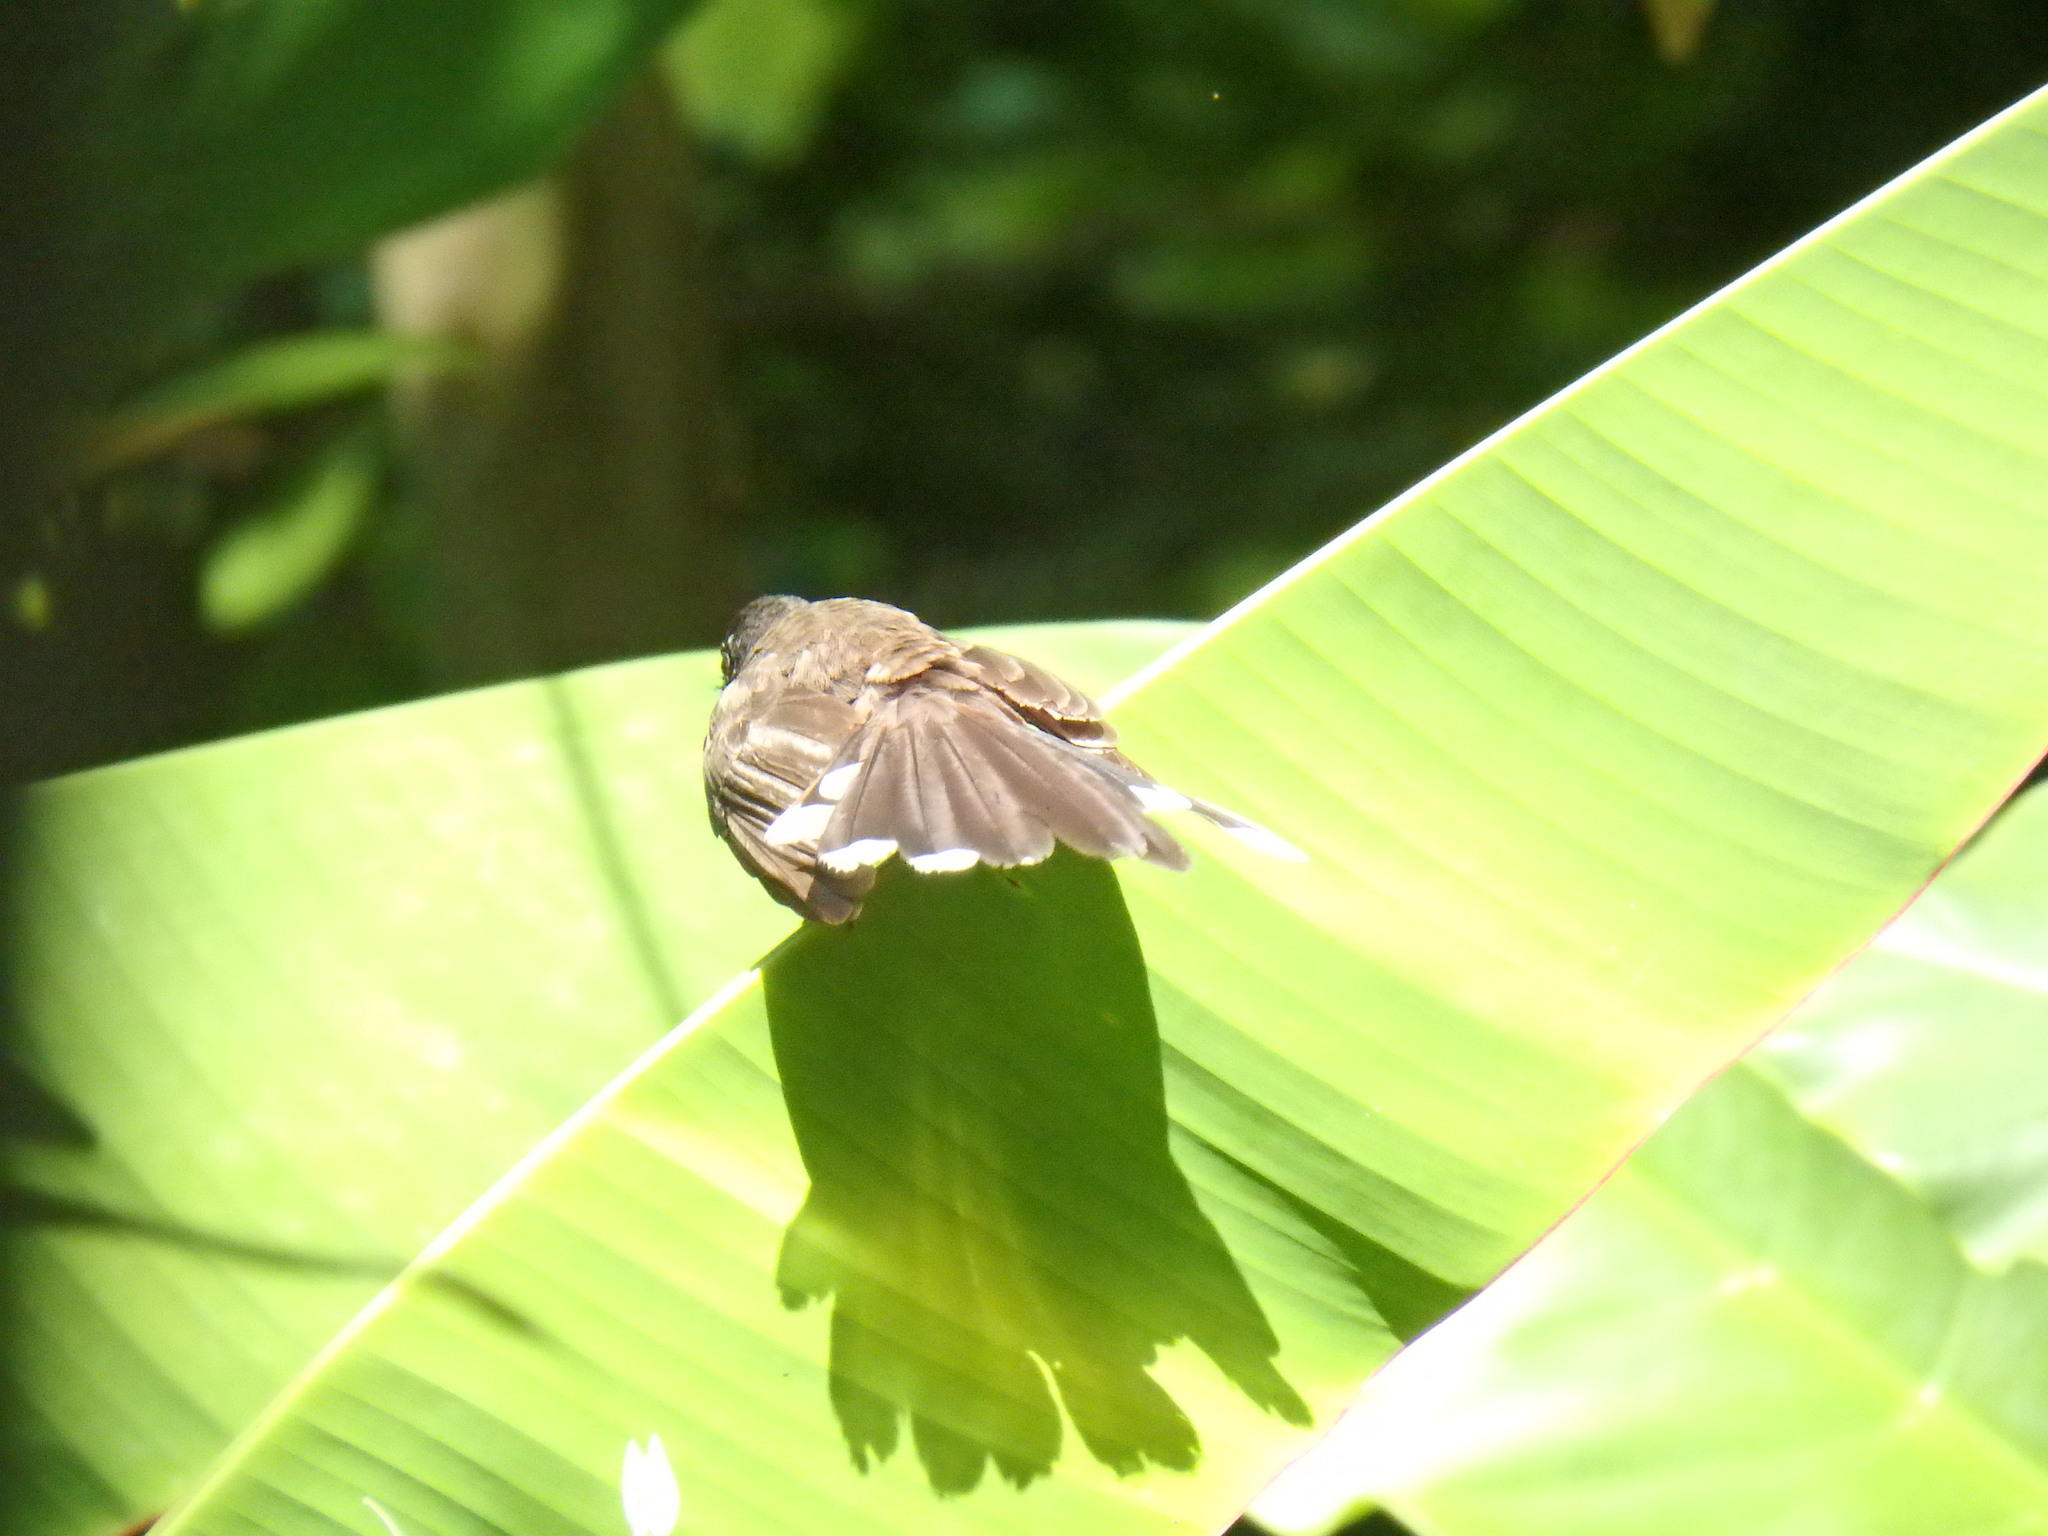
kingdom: Animalia
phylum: Chordata
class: Aves
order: Passeriformes
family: Rhipiduridae
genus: Rhipidura
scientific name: Rhipidura javanica
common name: Pied fantail
